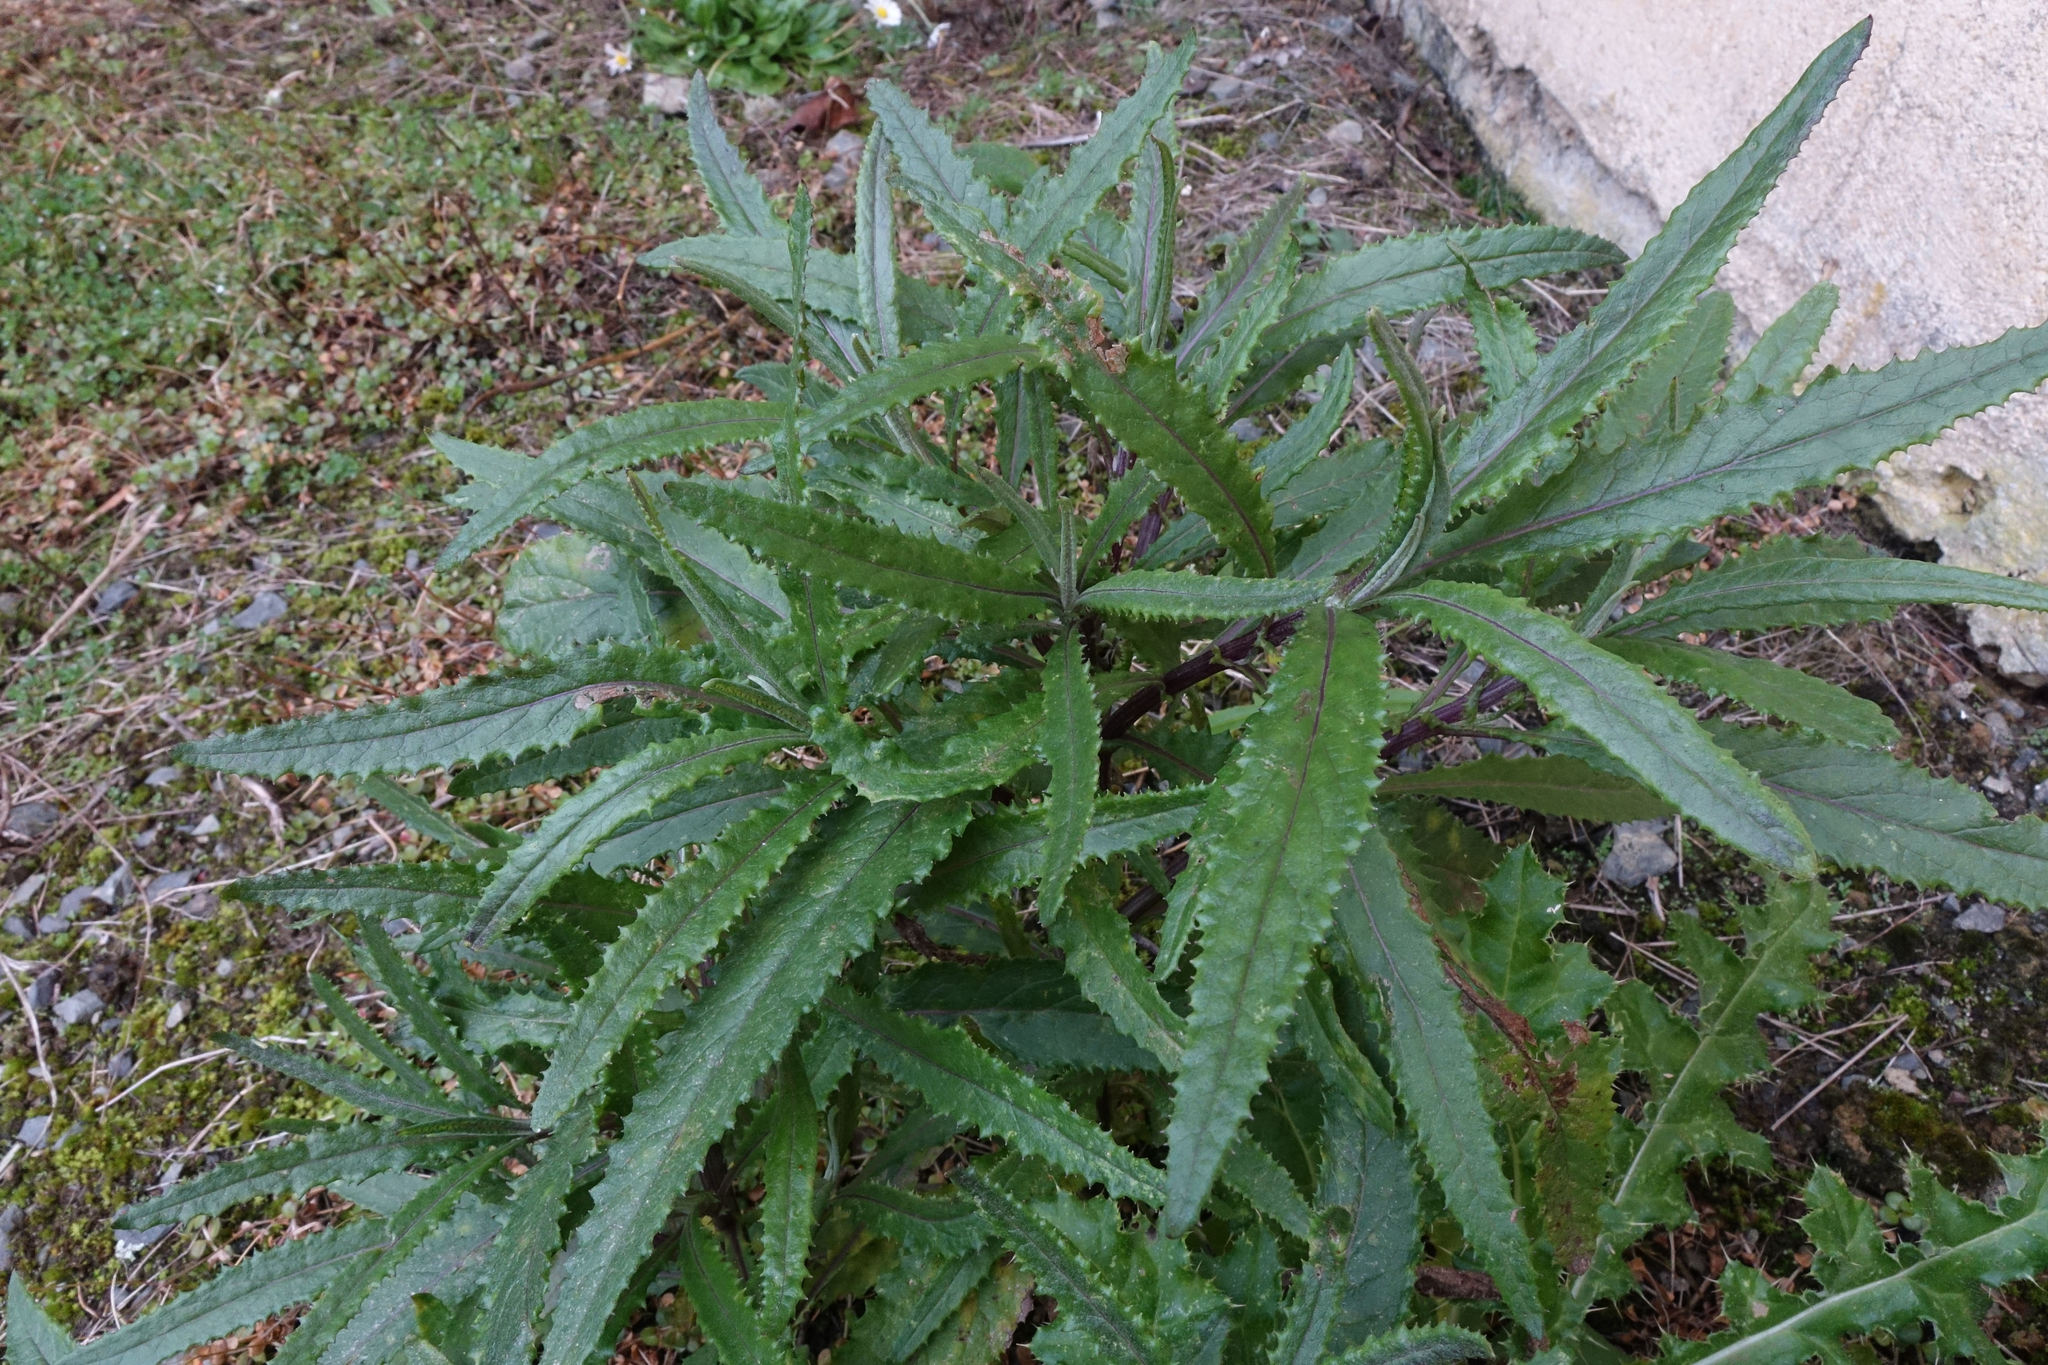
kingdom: Plantae
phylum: Tracheophyta
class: Magnoliopsida
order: Asterales
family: Asteraceae
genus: Senecio
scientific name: Senecio minimus
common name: Toothed fireweed
